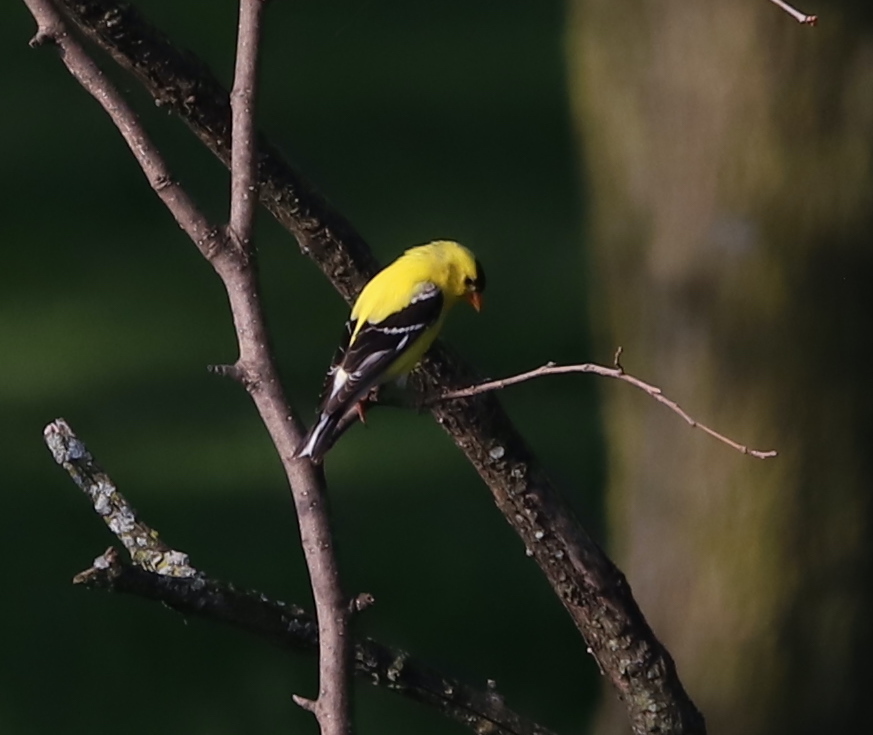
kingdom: Animalia
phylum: Chordata
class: Aves
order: Passeriformes
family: Fringillidae
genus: Spinus
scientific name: Spinus tristis
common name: American goldfinch
